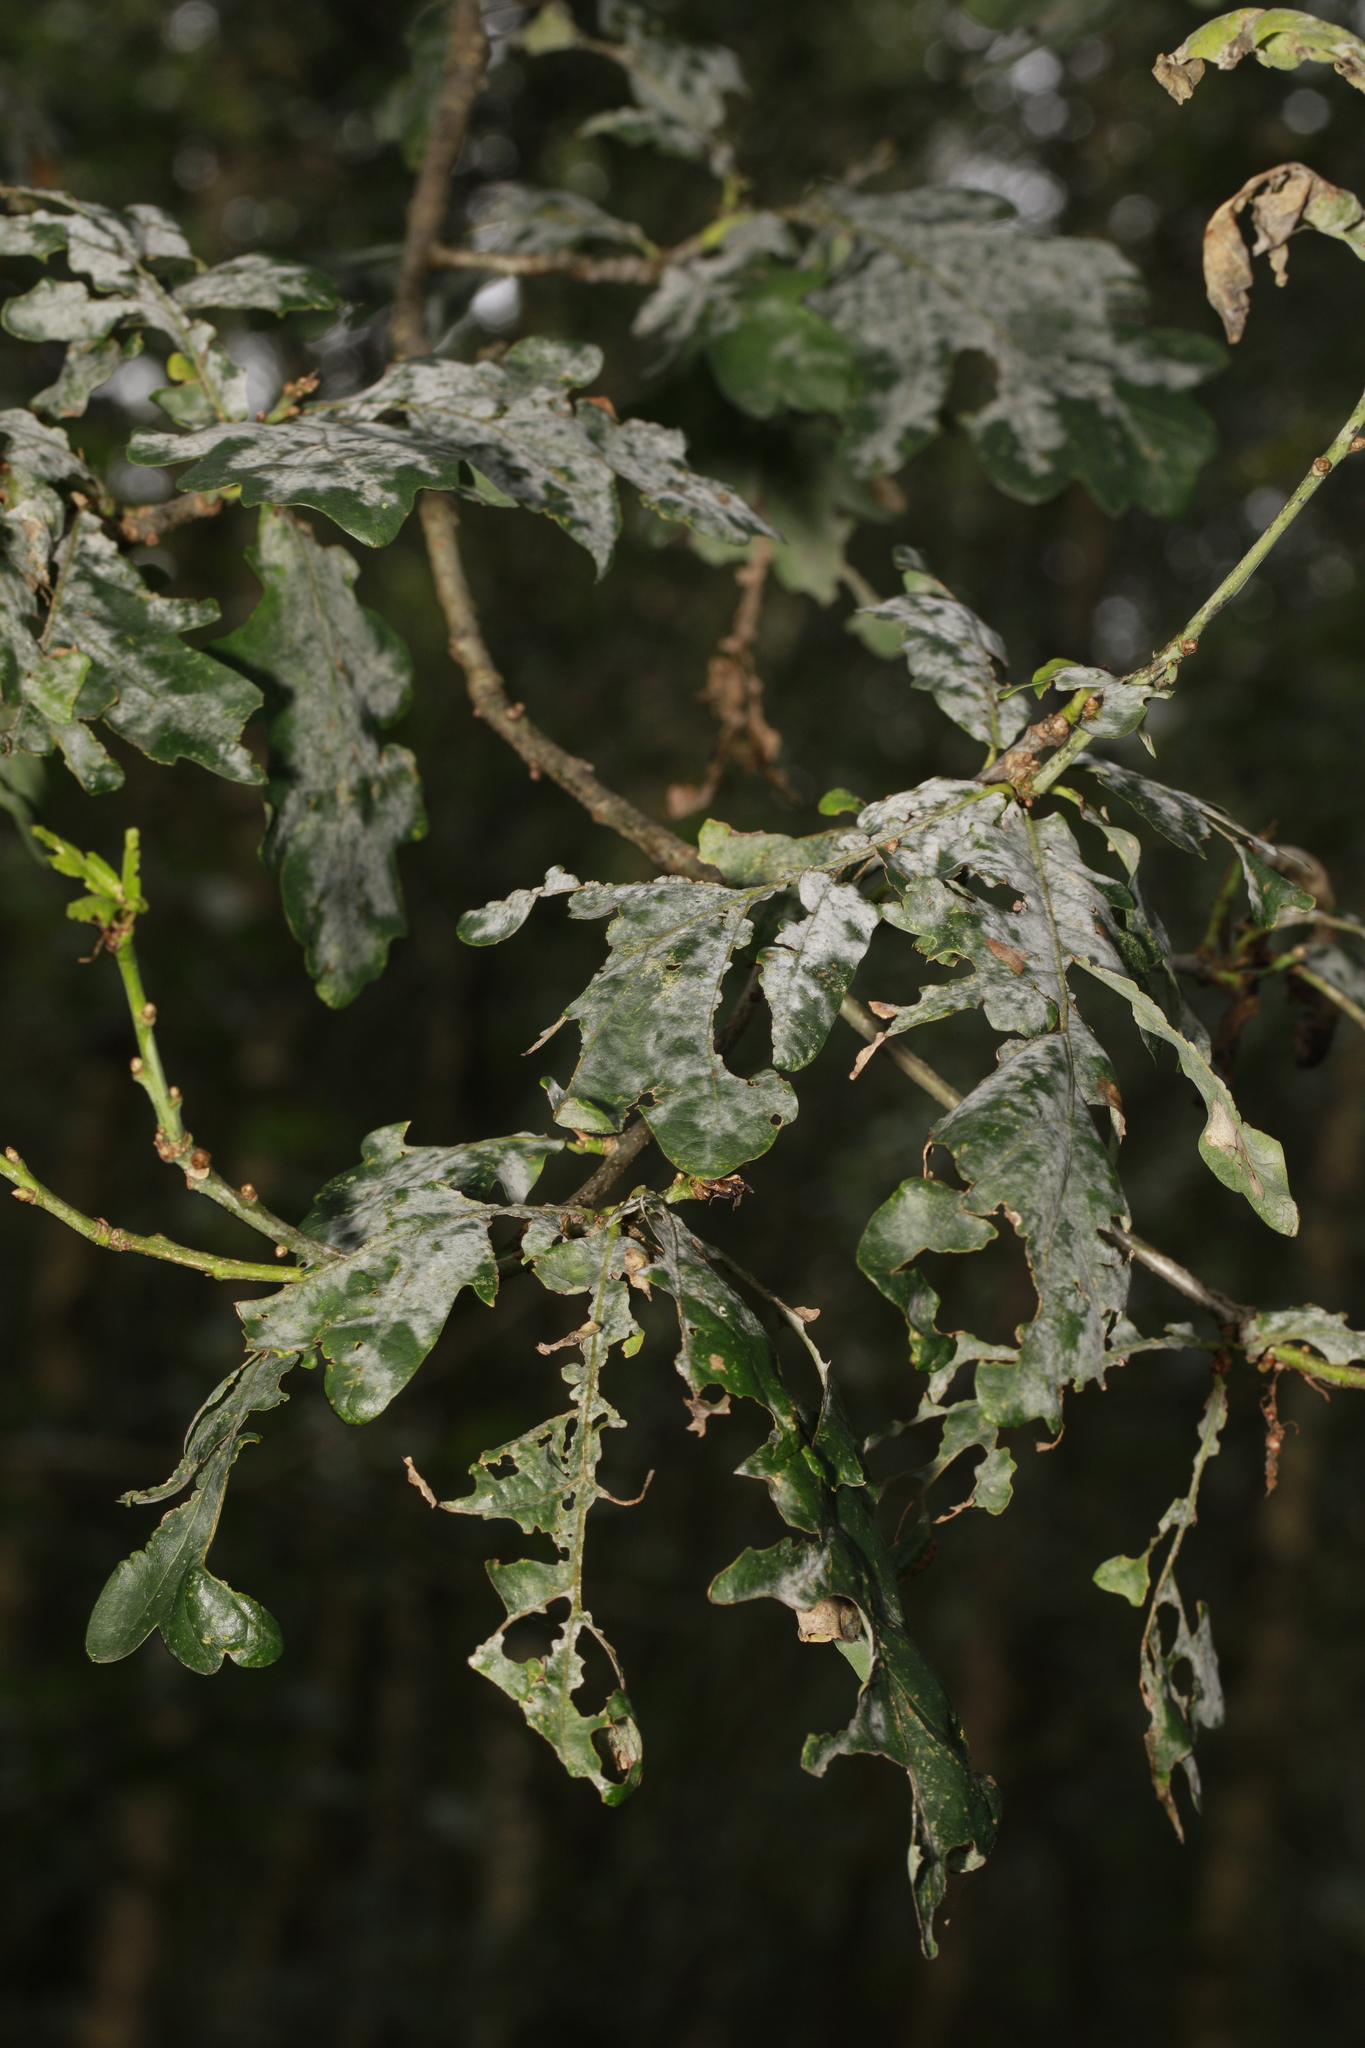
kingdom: Plantae
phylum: Tracheophyta
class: Magnoliopsida
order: Fagales
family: Fagaceae
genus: Quercus
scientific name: Quercus robur
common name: Pedunculate oak
